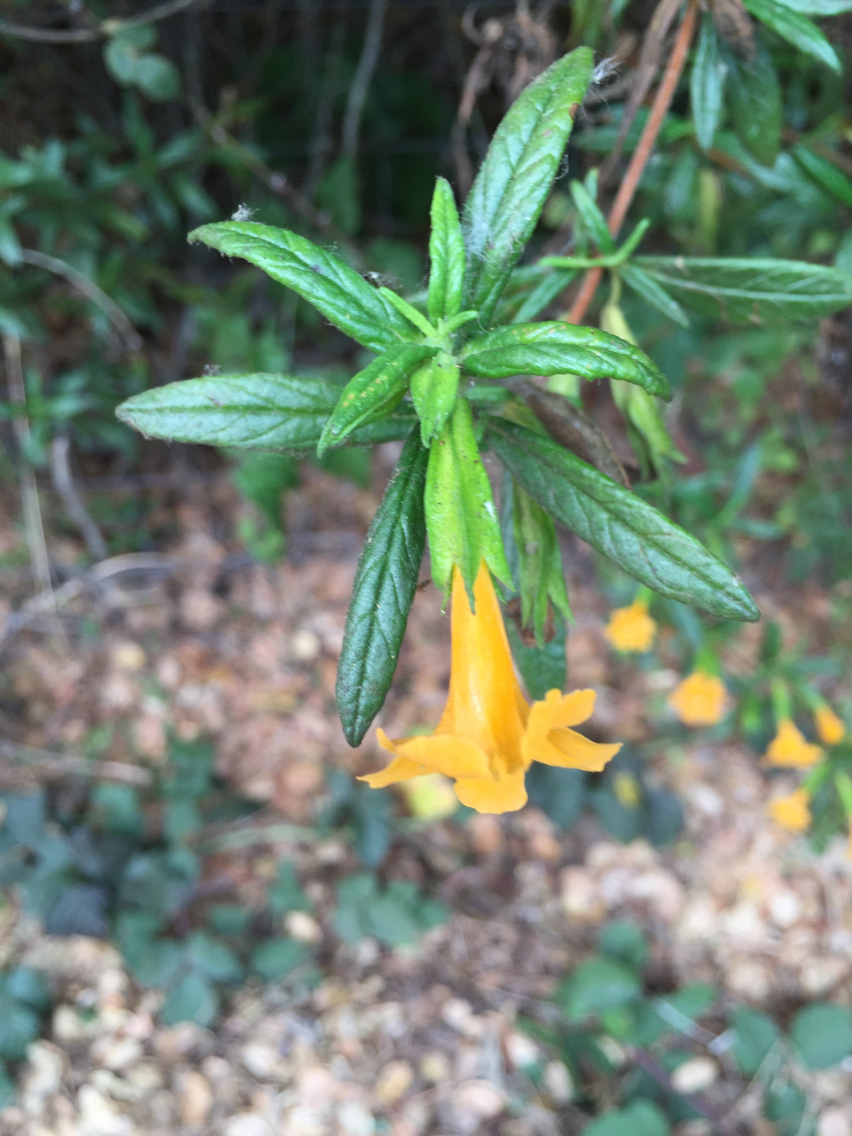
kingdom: Plantae
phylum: Tracheophyta
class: Magnoliopsida
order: Lamiales
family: Phrymaceae
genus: Diplacus
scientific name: Diplacus aurantiacus
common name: Bush monkey-flower
